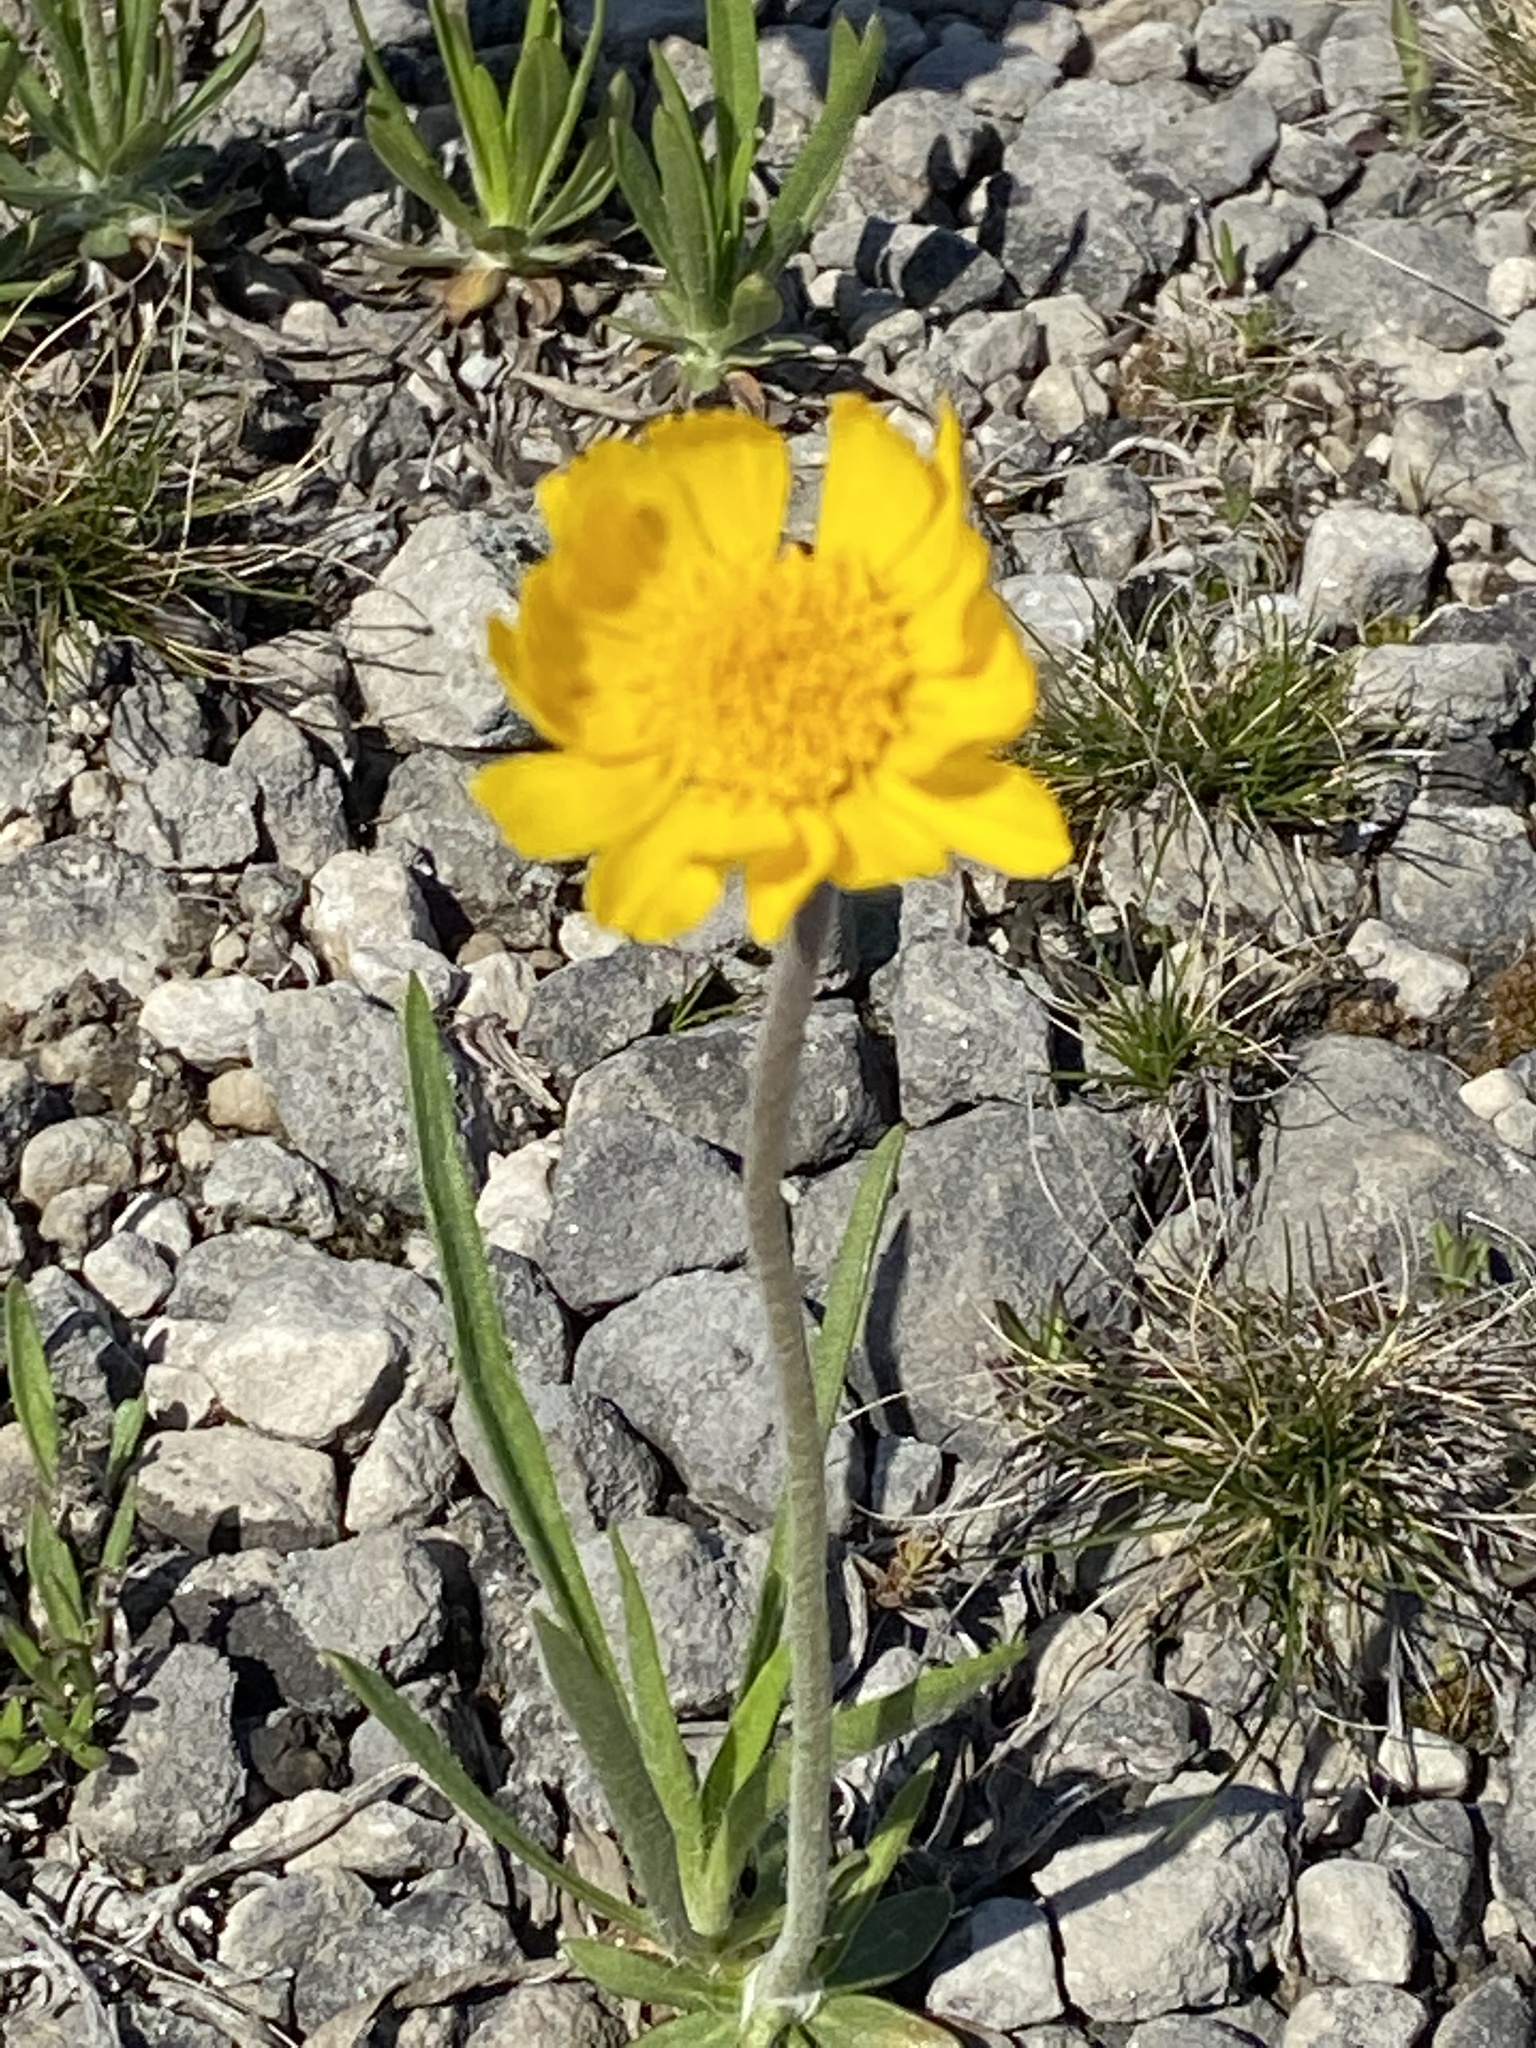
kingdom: Plantae
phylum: Tracheophyta
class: Magnoliopsida
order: Asterales
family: Asteraceae
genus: Tetraneuris
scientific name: Tetraneuris herbacea
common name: Lakeside daisy
